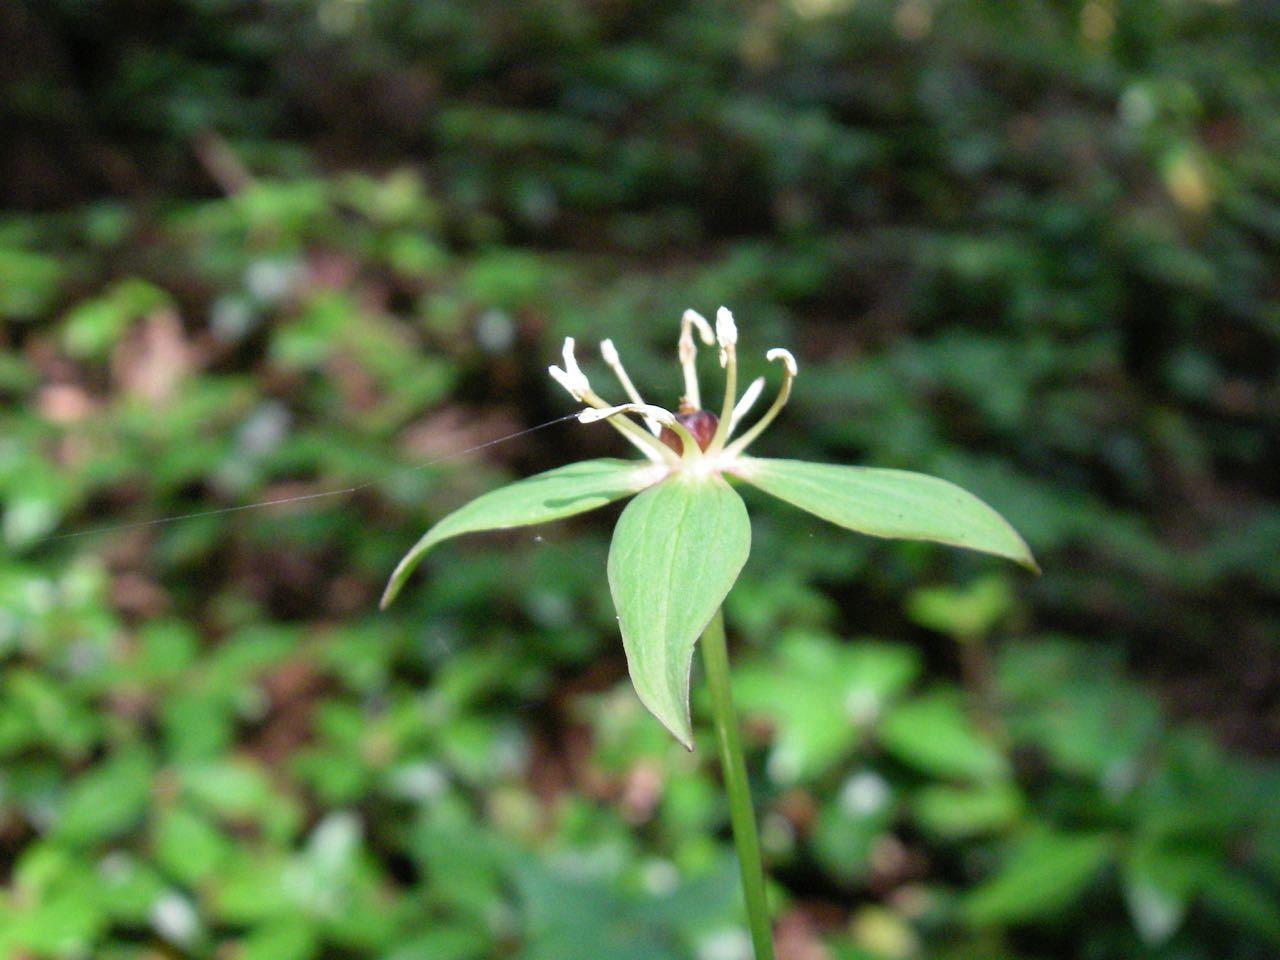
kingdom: Plantae
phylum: Tracheophyta
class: Liliopsida
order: Liliales
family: Melanthiaceae
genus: Paris
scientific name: Paris tetraphylla
